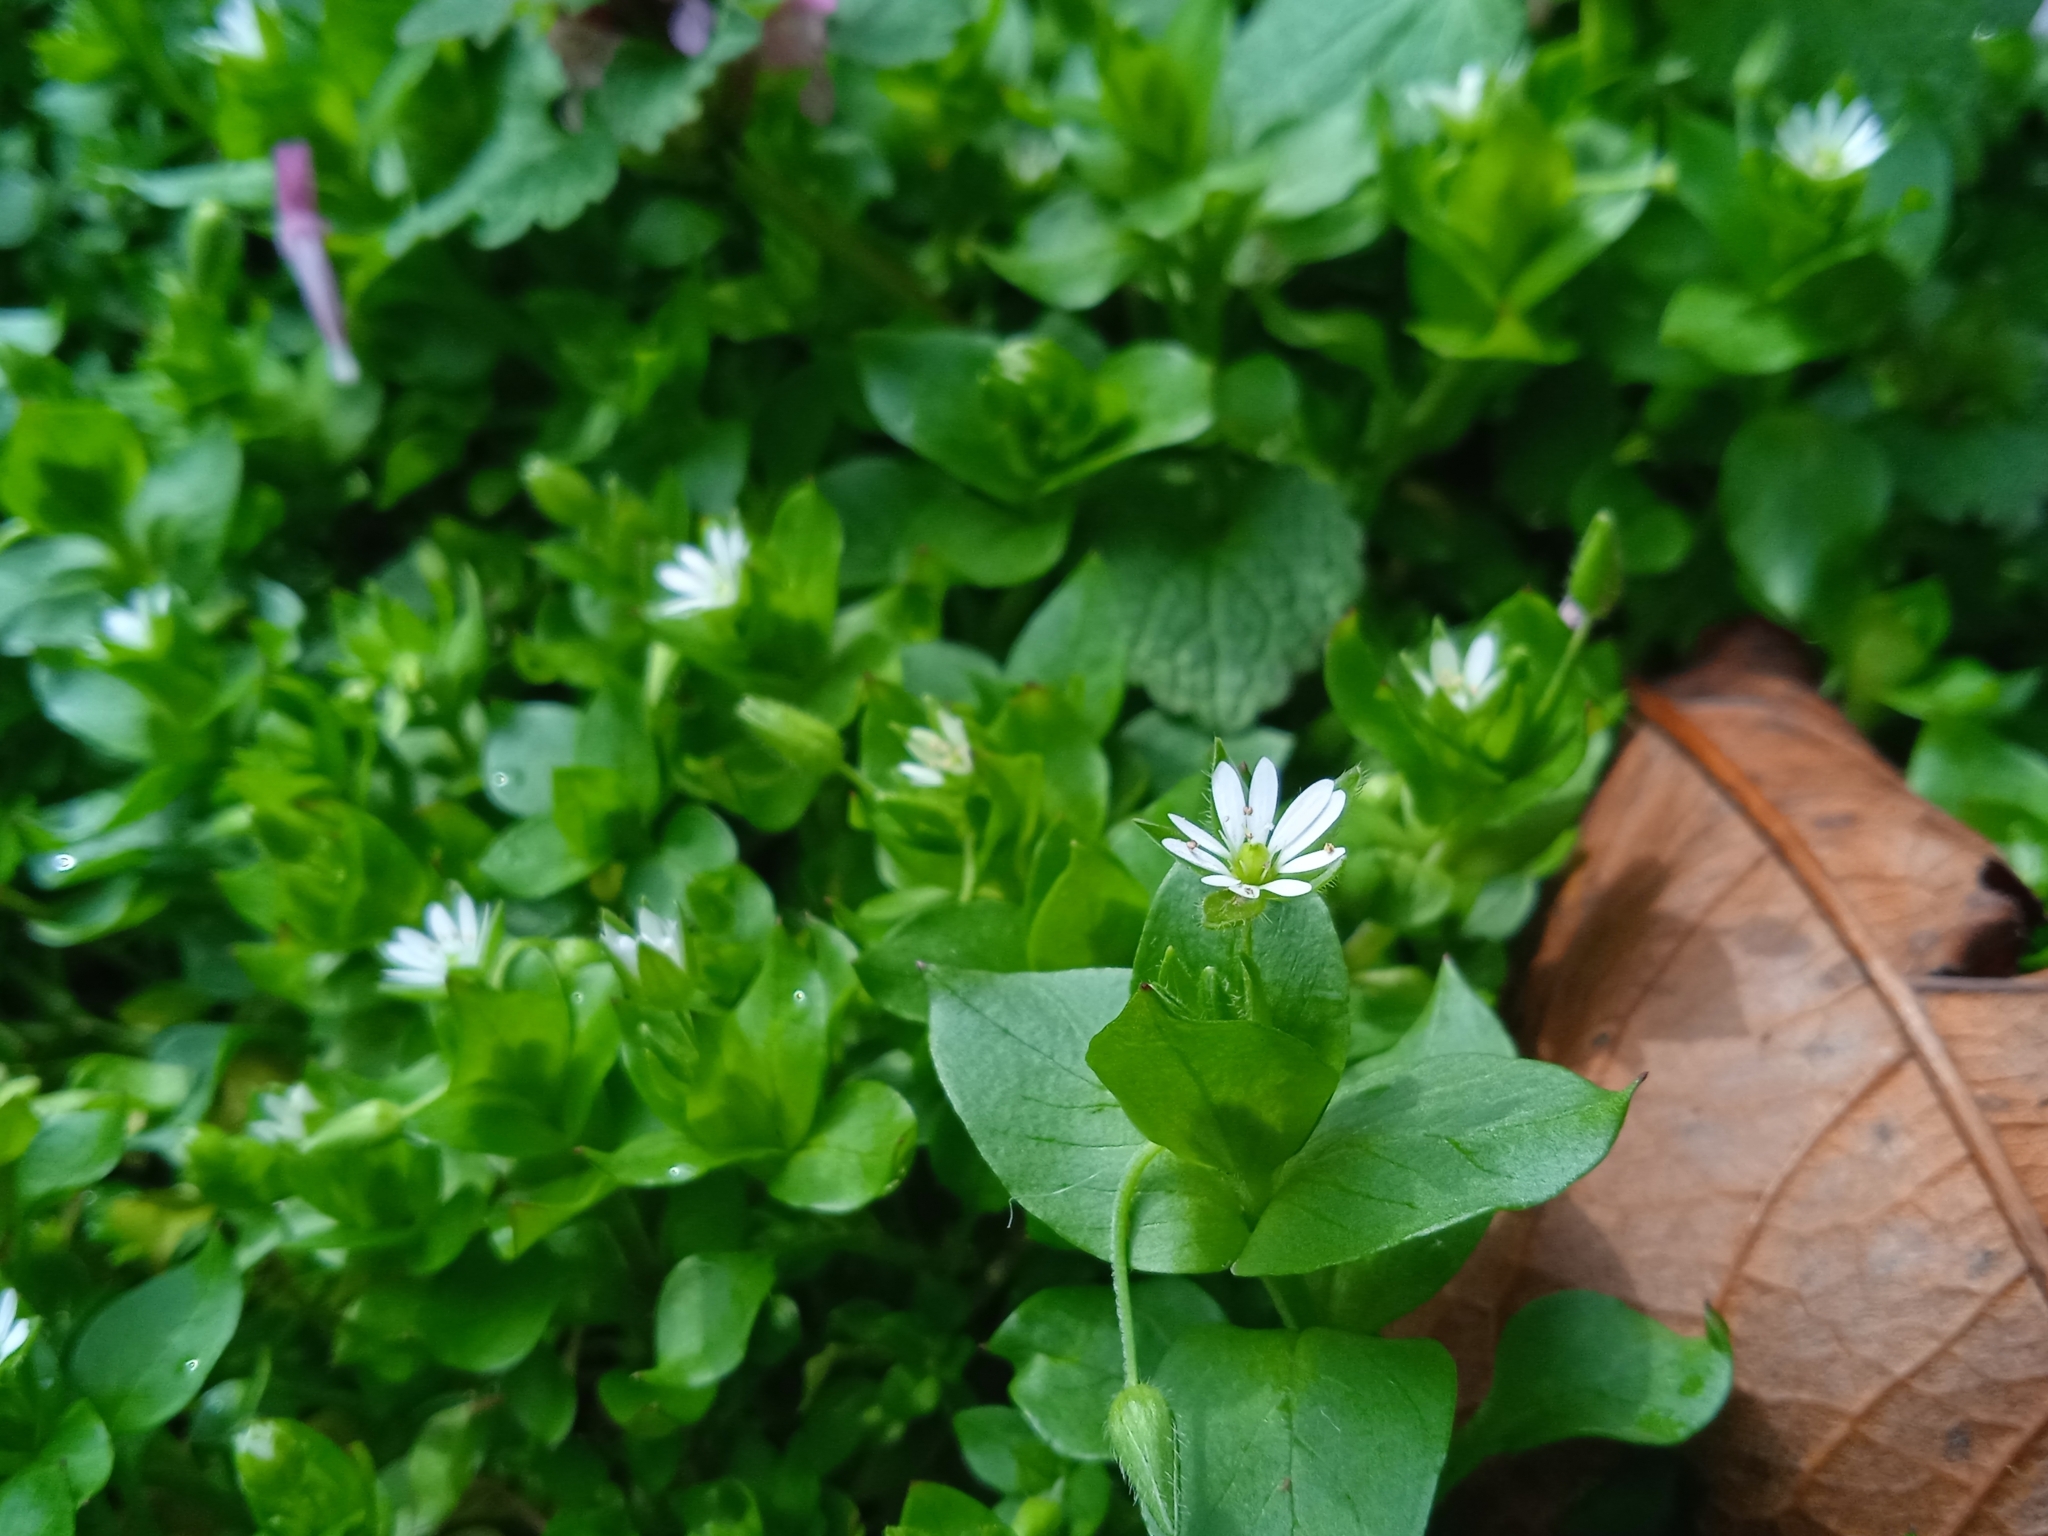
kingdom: Plantae
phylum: Tracheophyta
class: Magnoliopsida
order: Caryophyllales
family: Caryophyllaceae
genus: Stellaria
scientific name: Stellaria media
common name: Common chickweed
